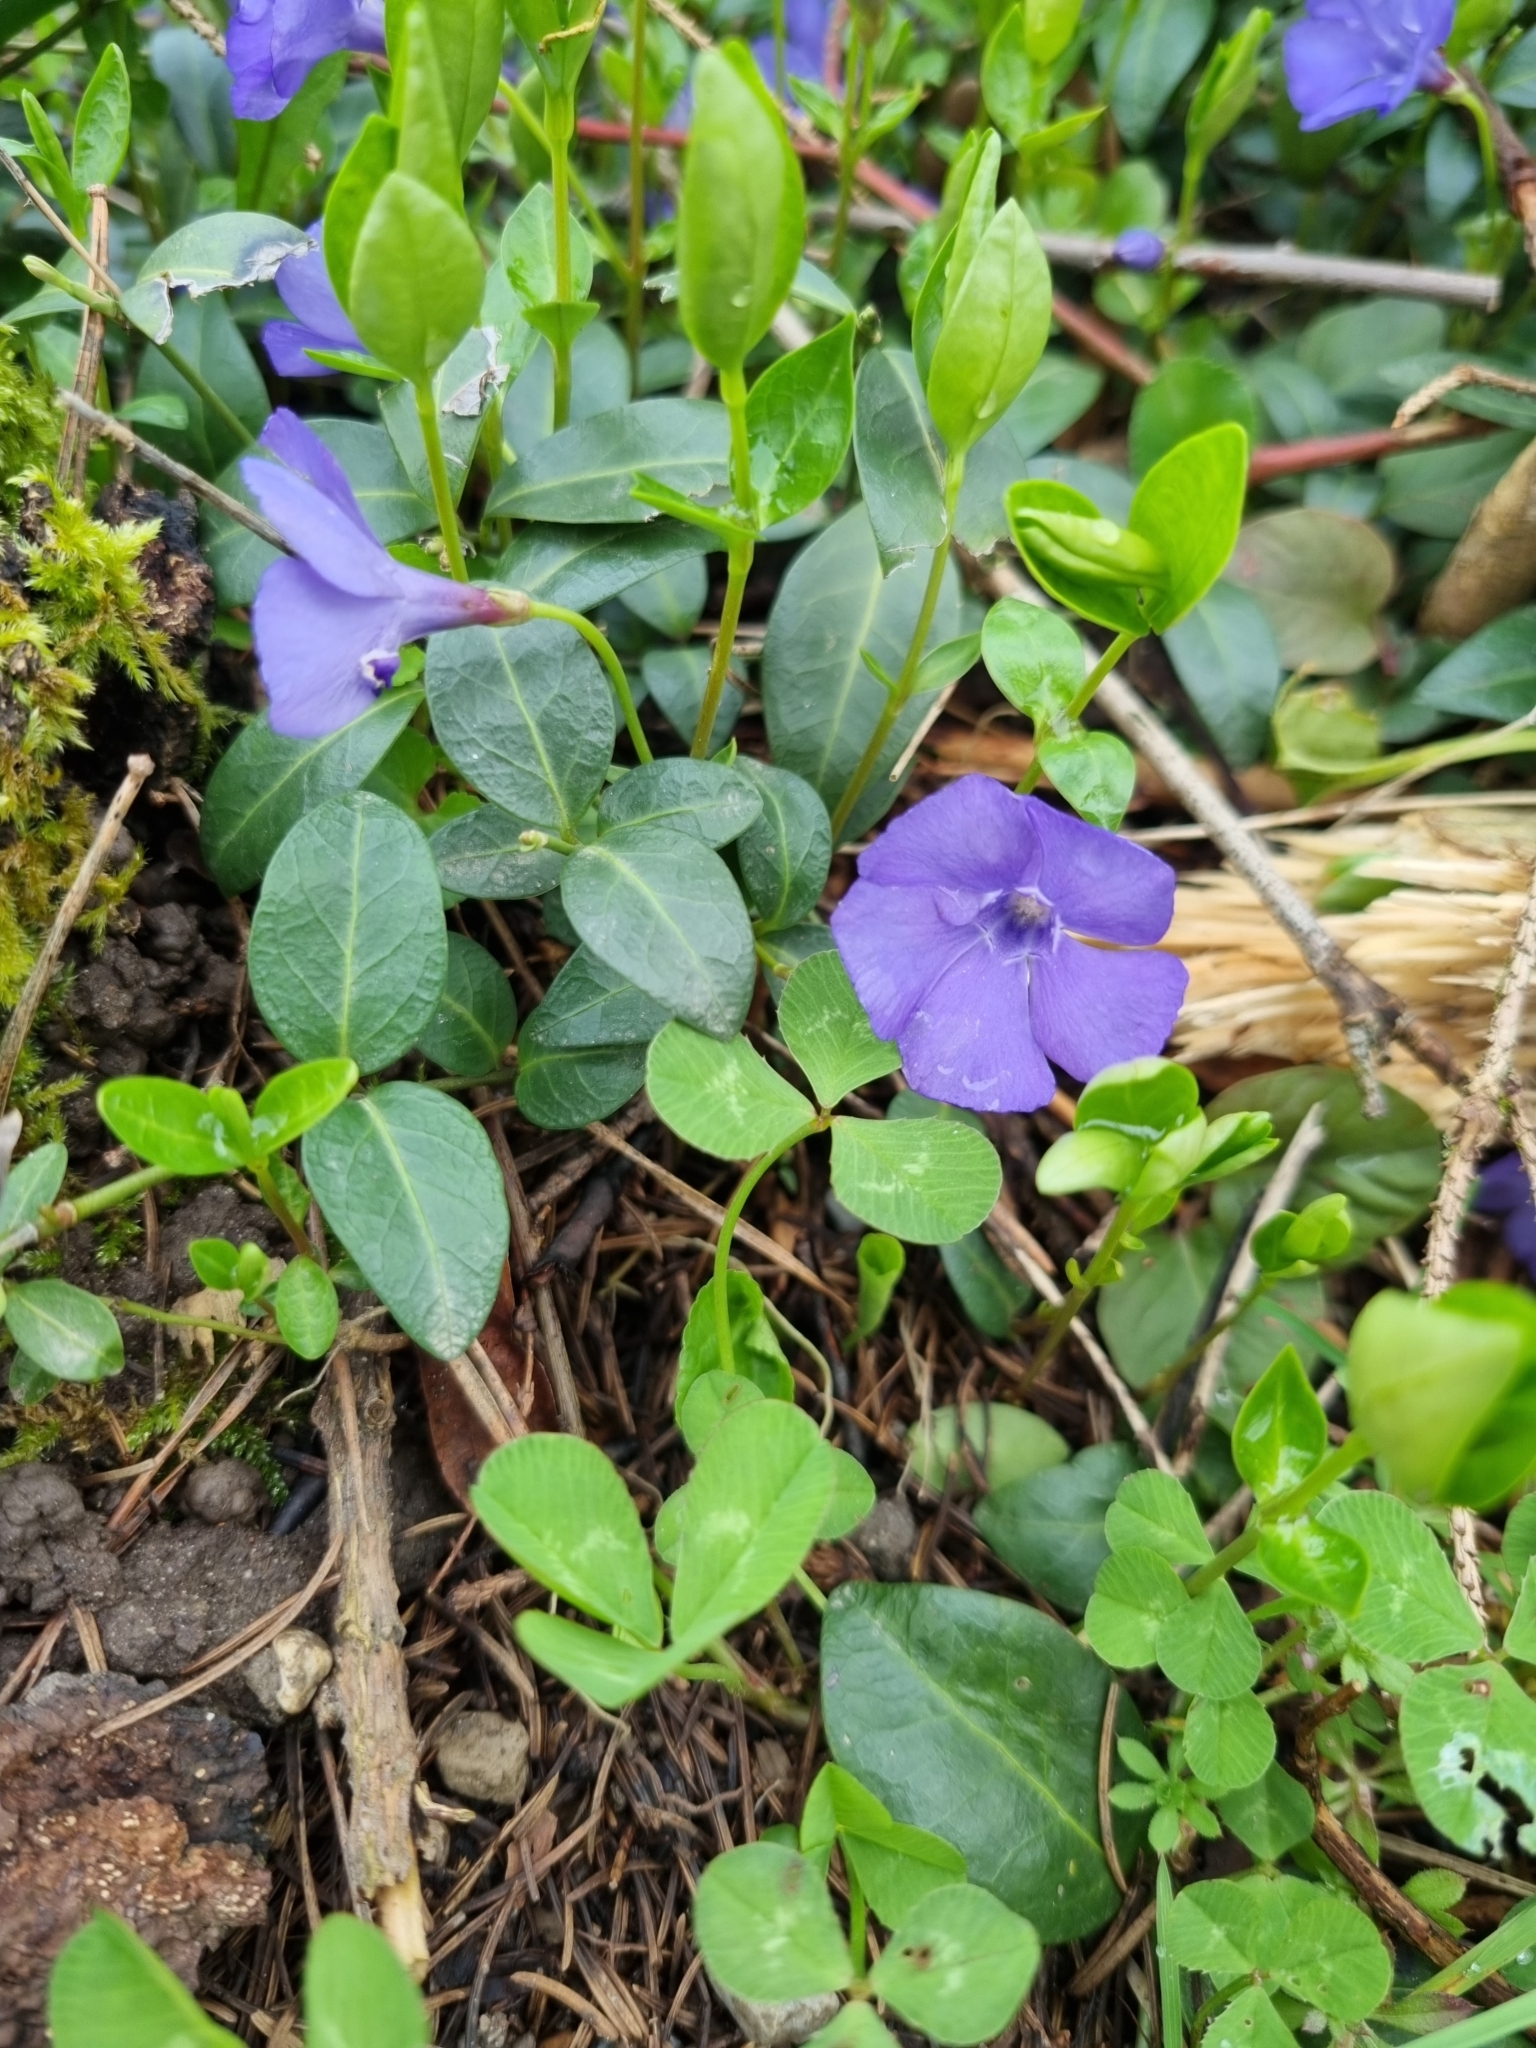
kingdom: Plantae
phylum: Tracheophyta
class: Magnoliopsida
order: Gentianales
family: Apocynaceae
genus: Vinca
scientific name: Vinca minor
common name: Lesser periwinkle
